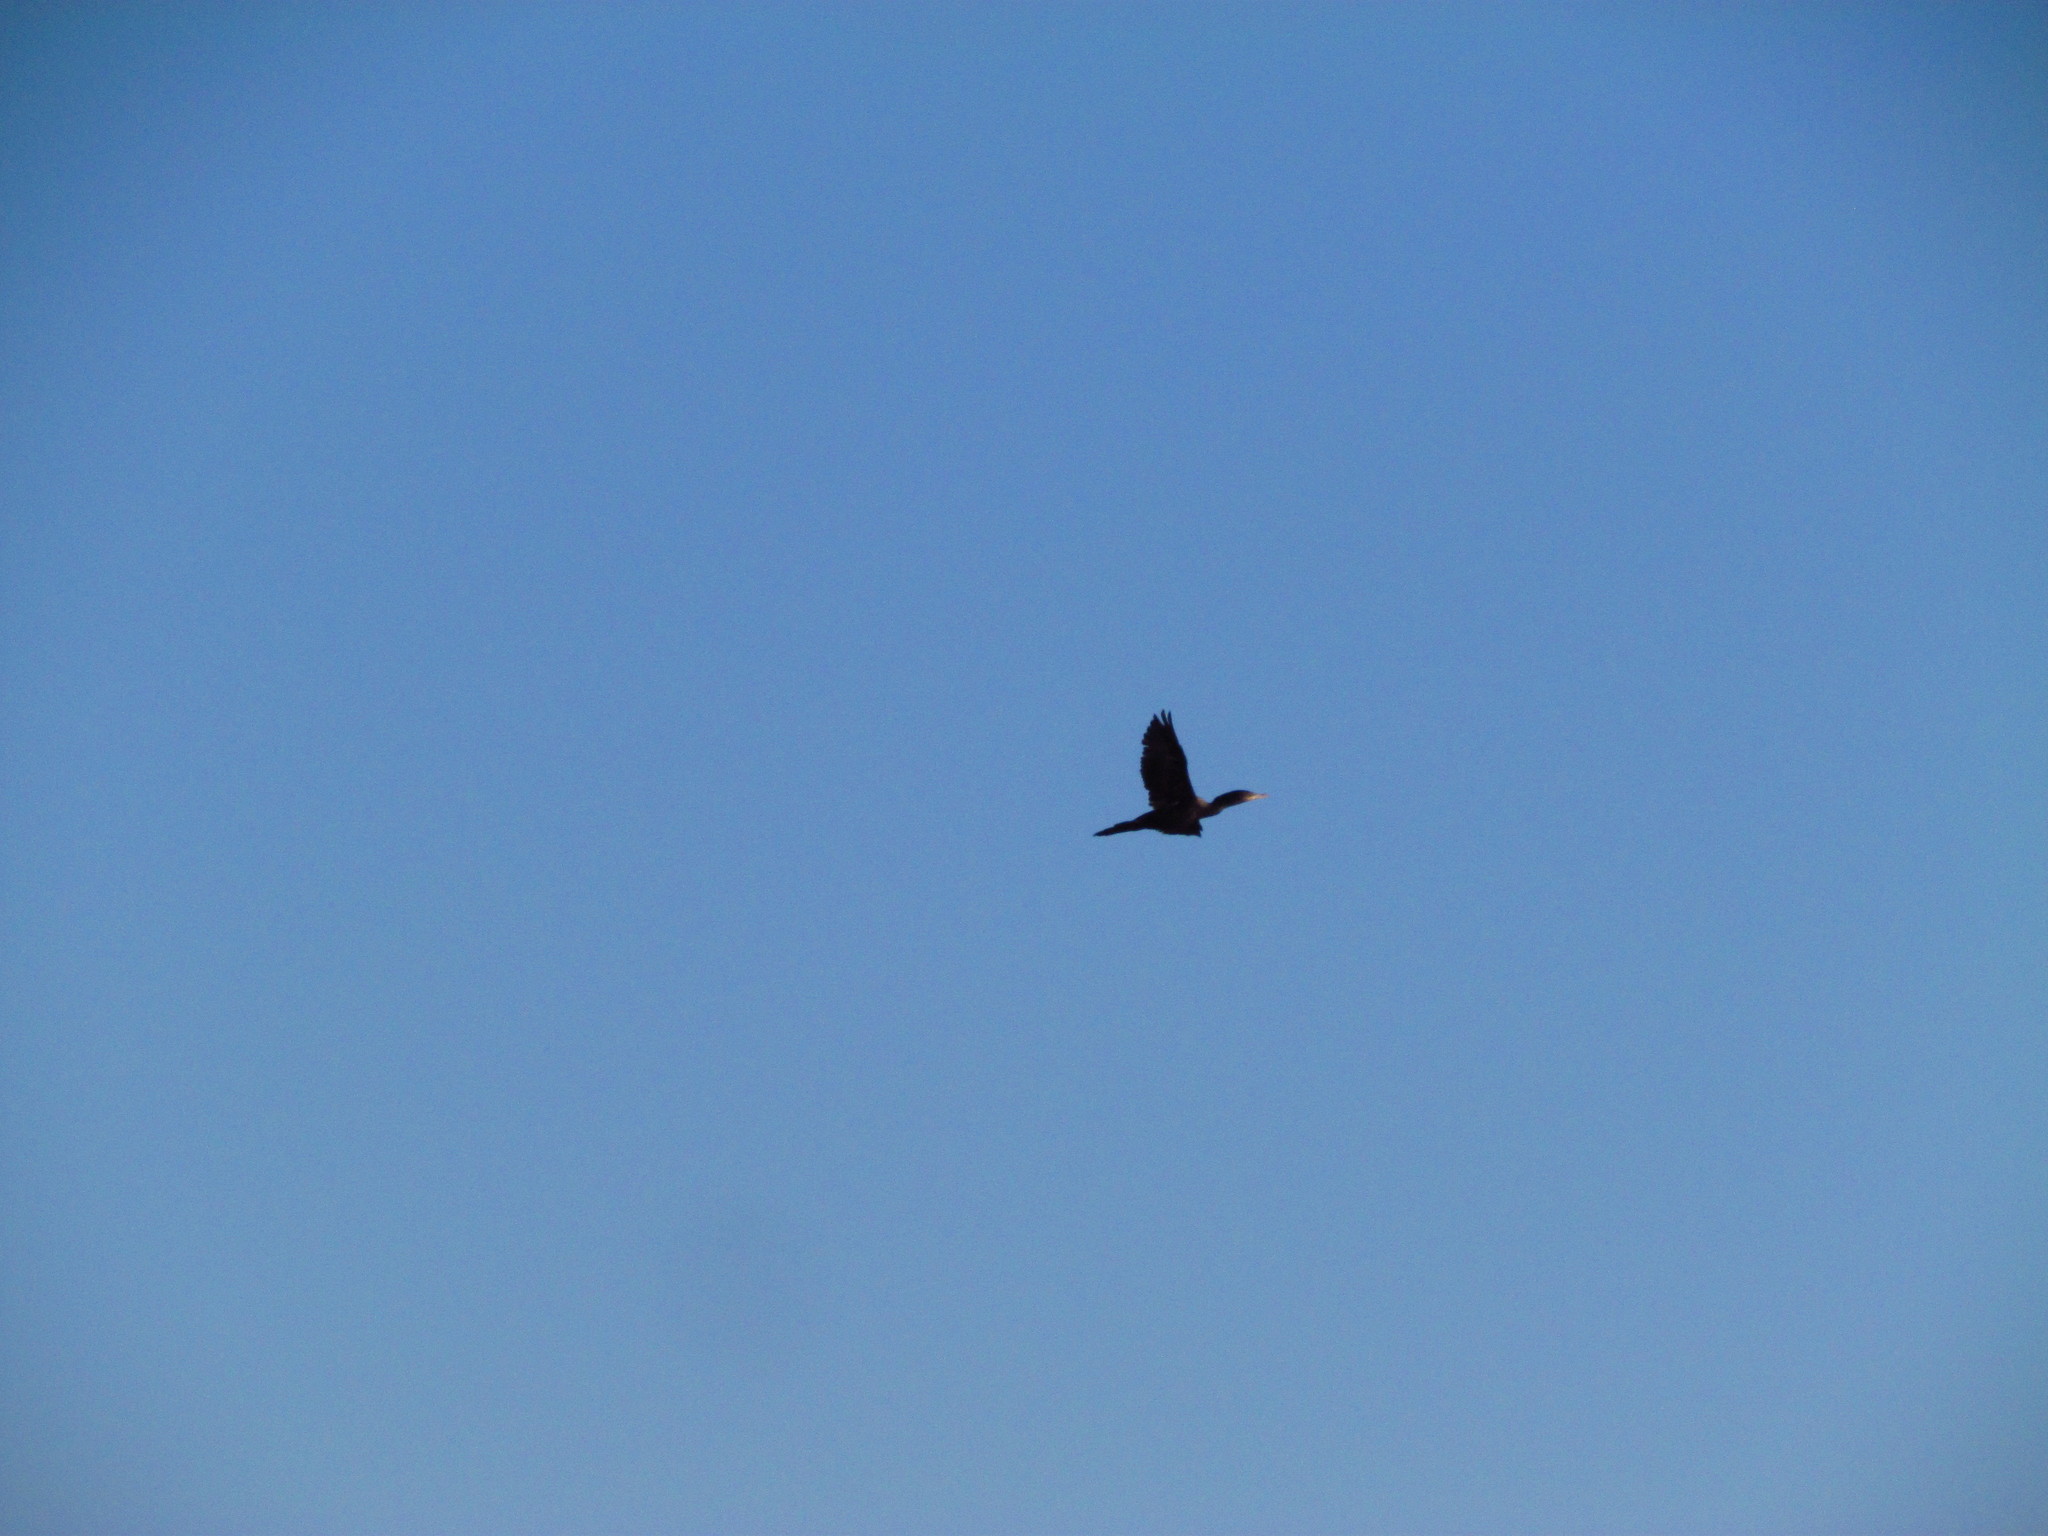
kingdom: Animalia
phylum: Chordata
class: Aves
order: Suliformes
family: Phalacrocoracidae
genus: Phalacrocorax
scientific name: Phalacrocorax brasilianus
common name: Neotropic cormorant
